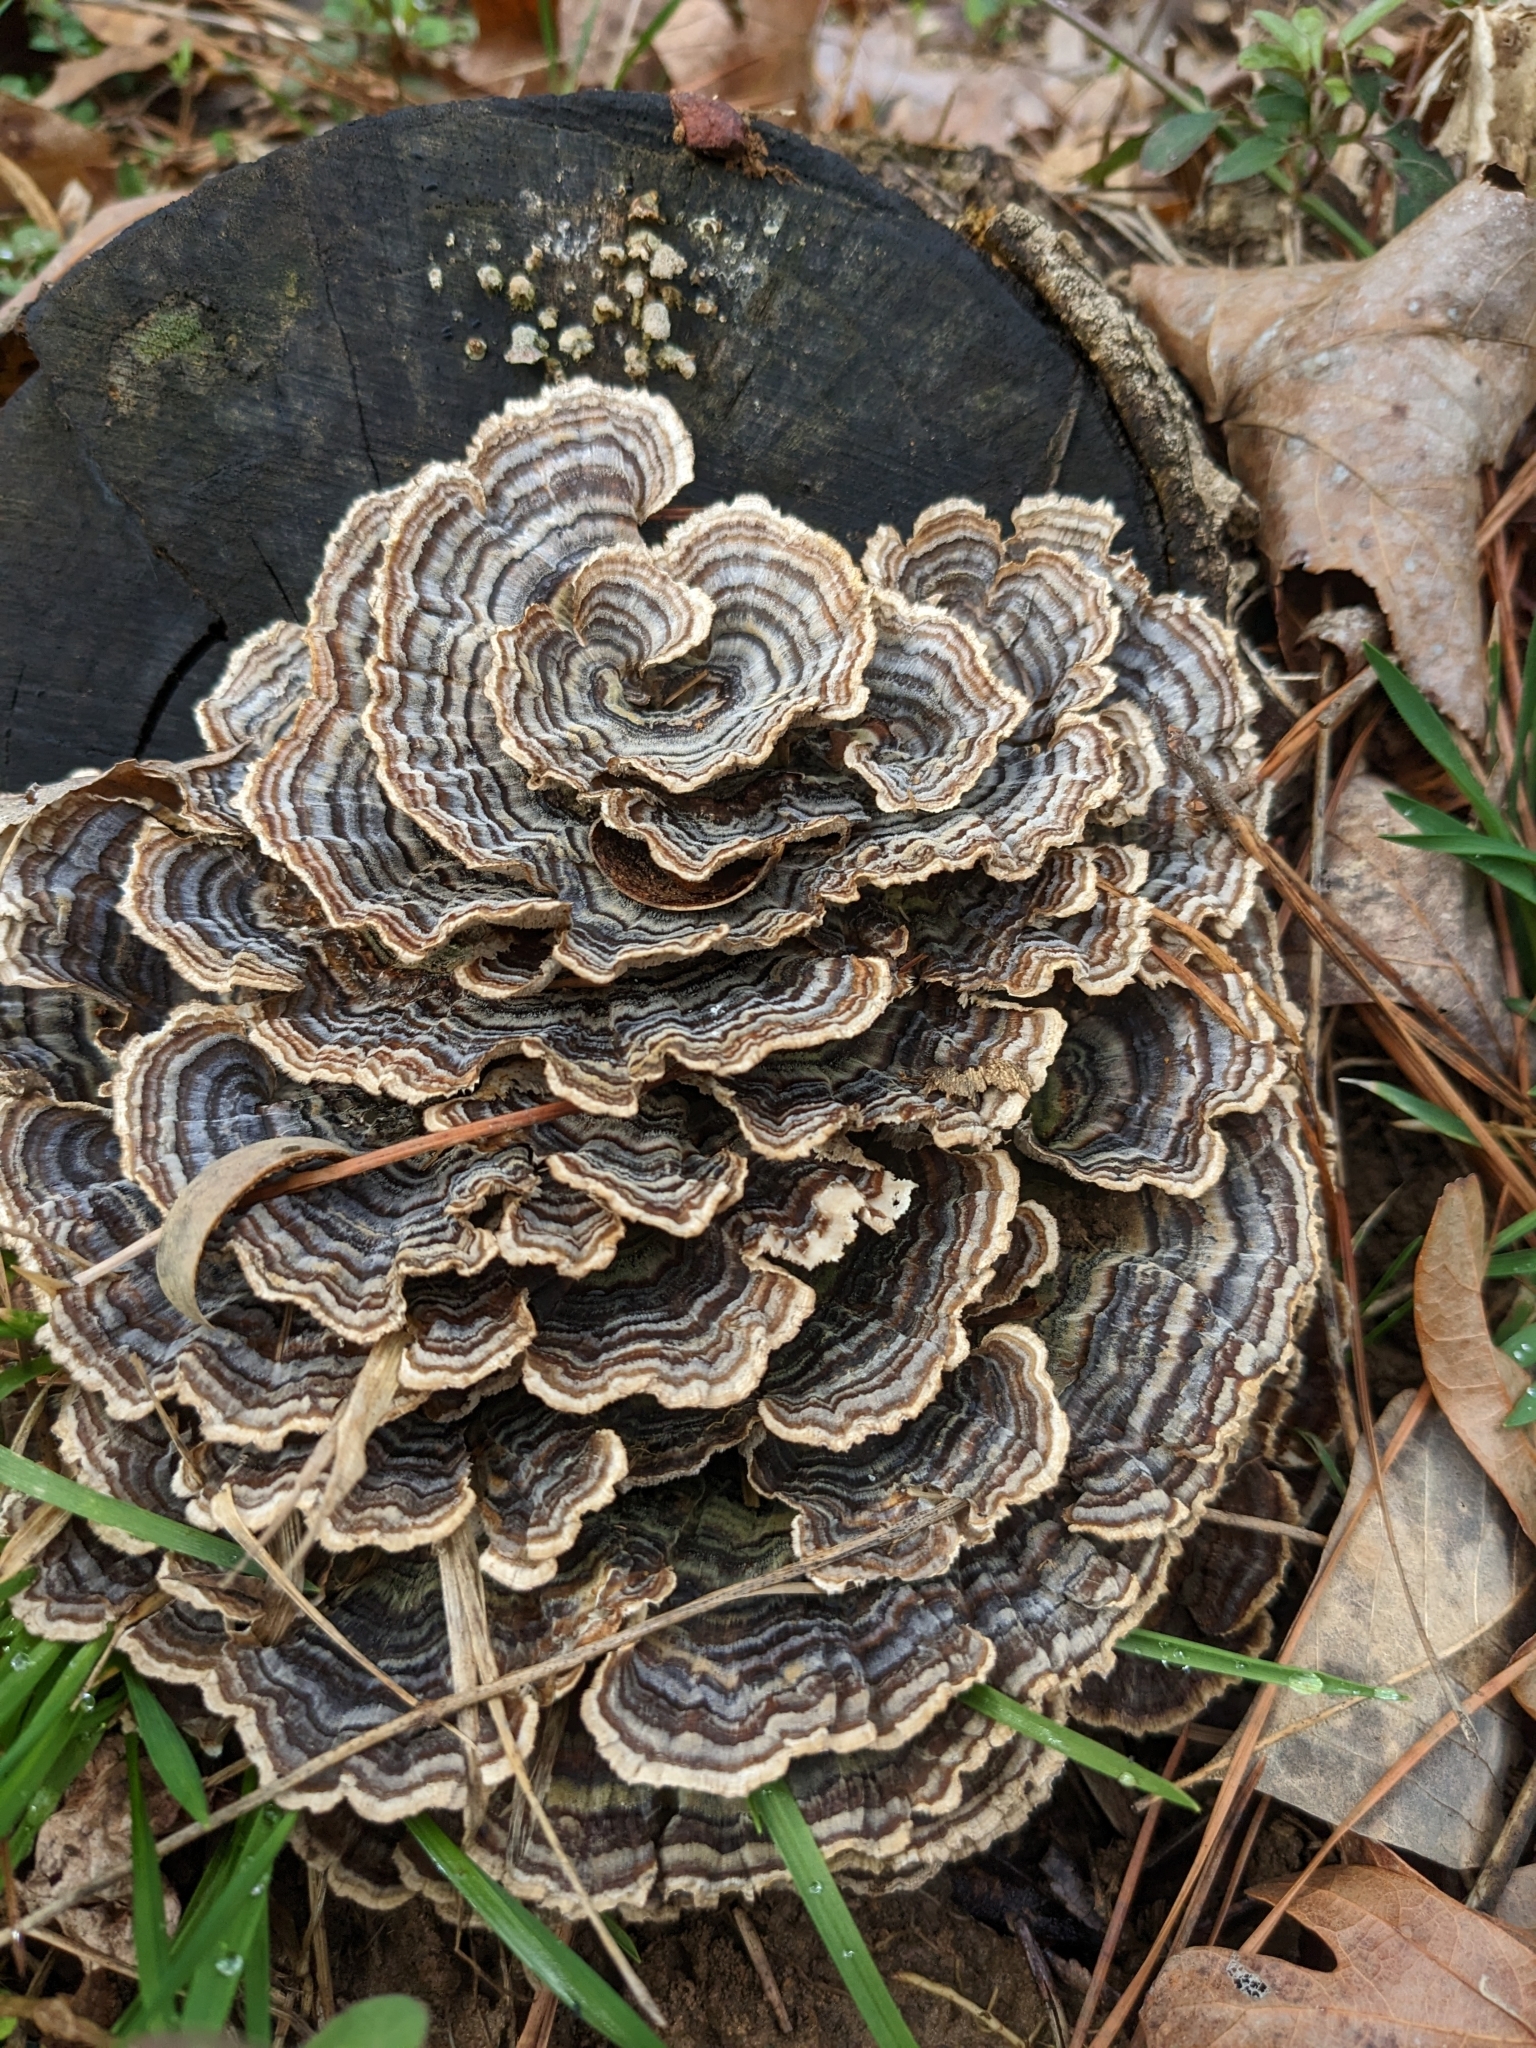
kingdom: Fungi
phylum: Basidiomycota
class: Agaricomycetes
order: Polyporales
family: Polyporaceae
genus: Trametes
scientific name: Trametes versicolor
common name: Turkeytail
